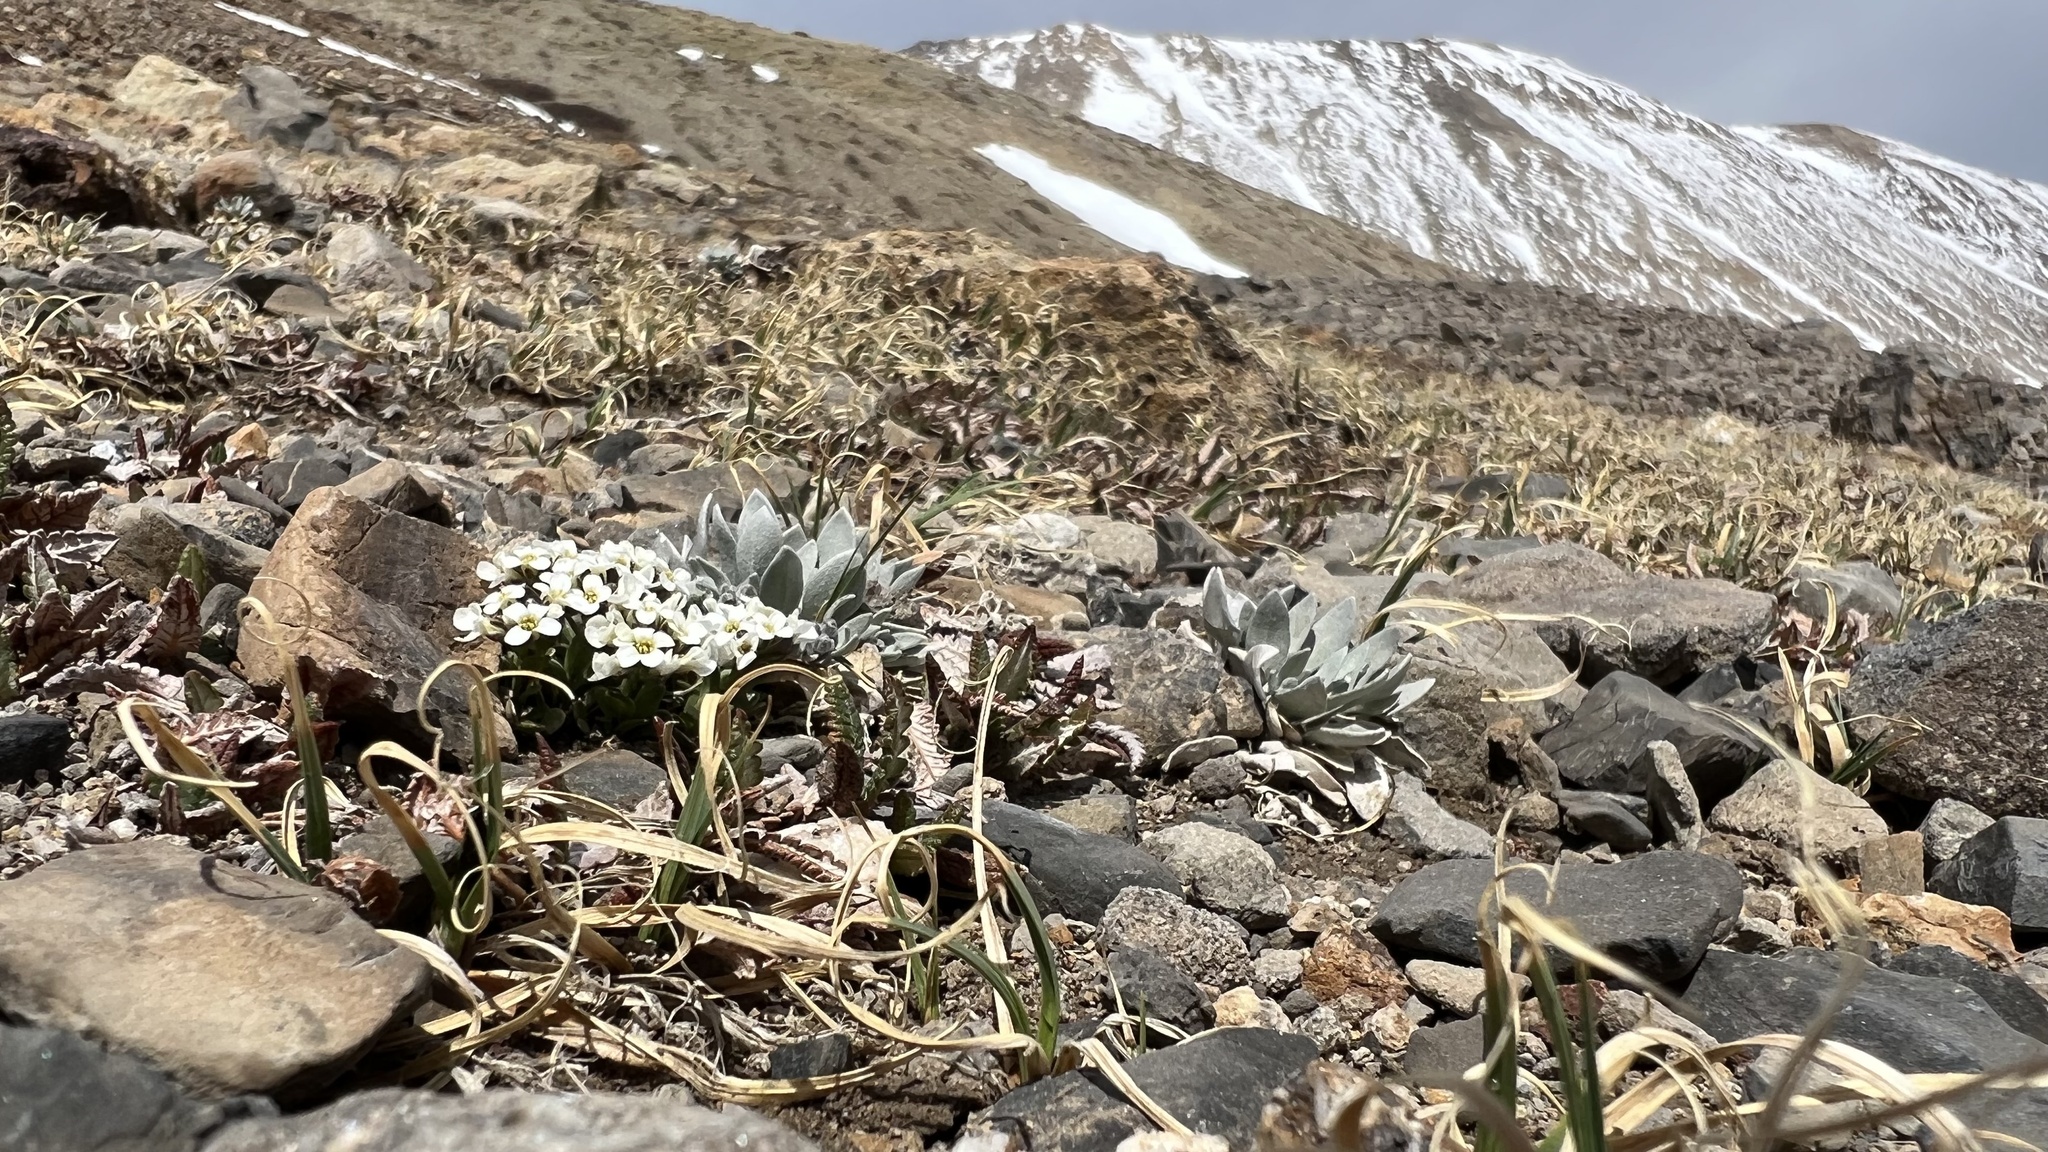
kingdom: Plantae
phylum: Tracheophyta
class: Magnoliopsida
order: Brassicales
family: Brassicaceae
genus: Physaria
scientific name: Physaria alpina
